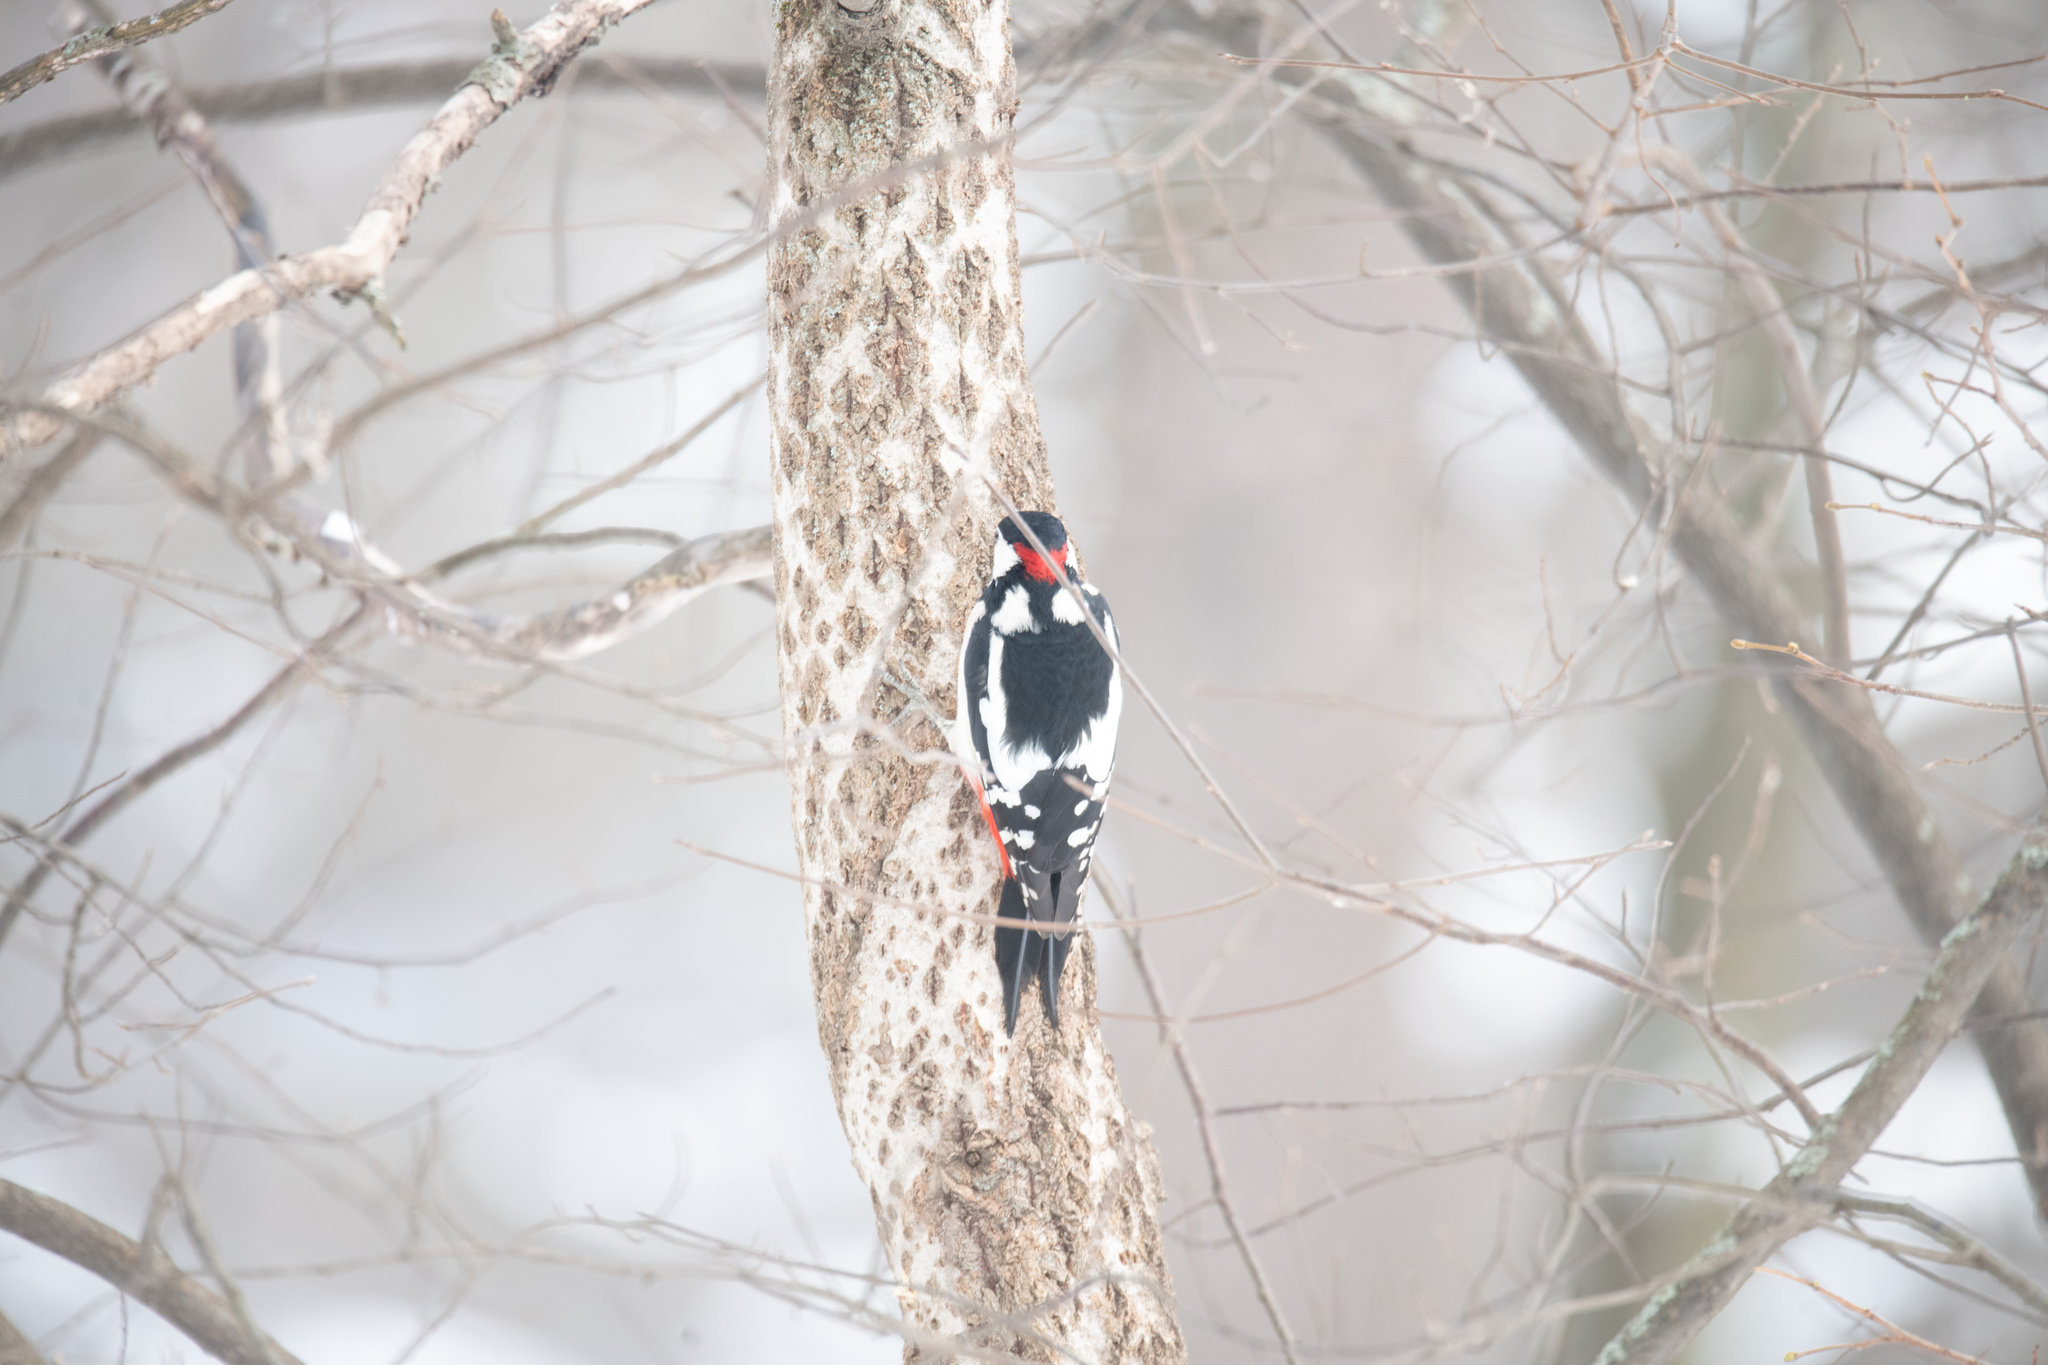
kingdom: Animalia
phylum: Chordata
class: Aves
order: Piciformes
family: Picidae
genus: Dendrocopos
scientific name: Dendrocopos major
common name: Great spotted woodpecker
